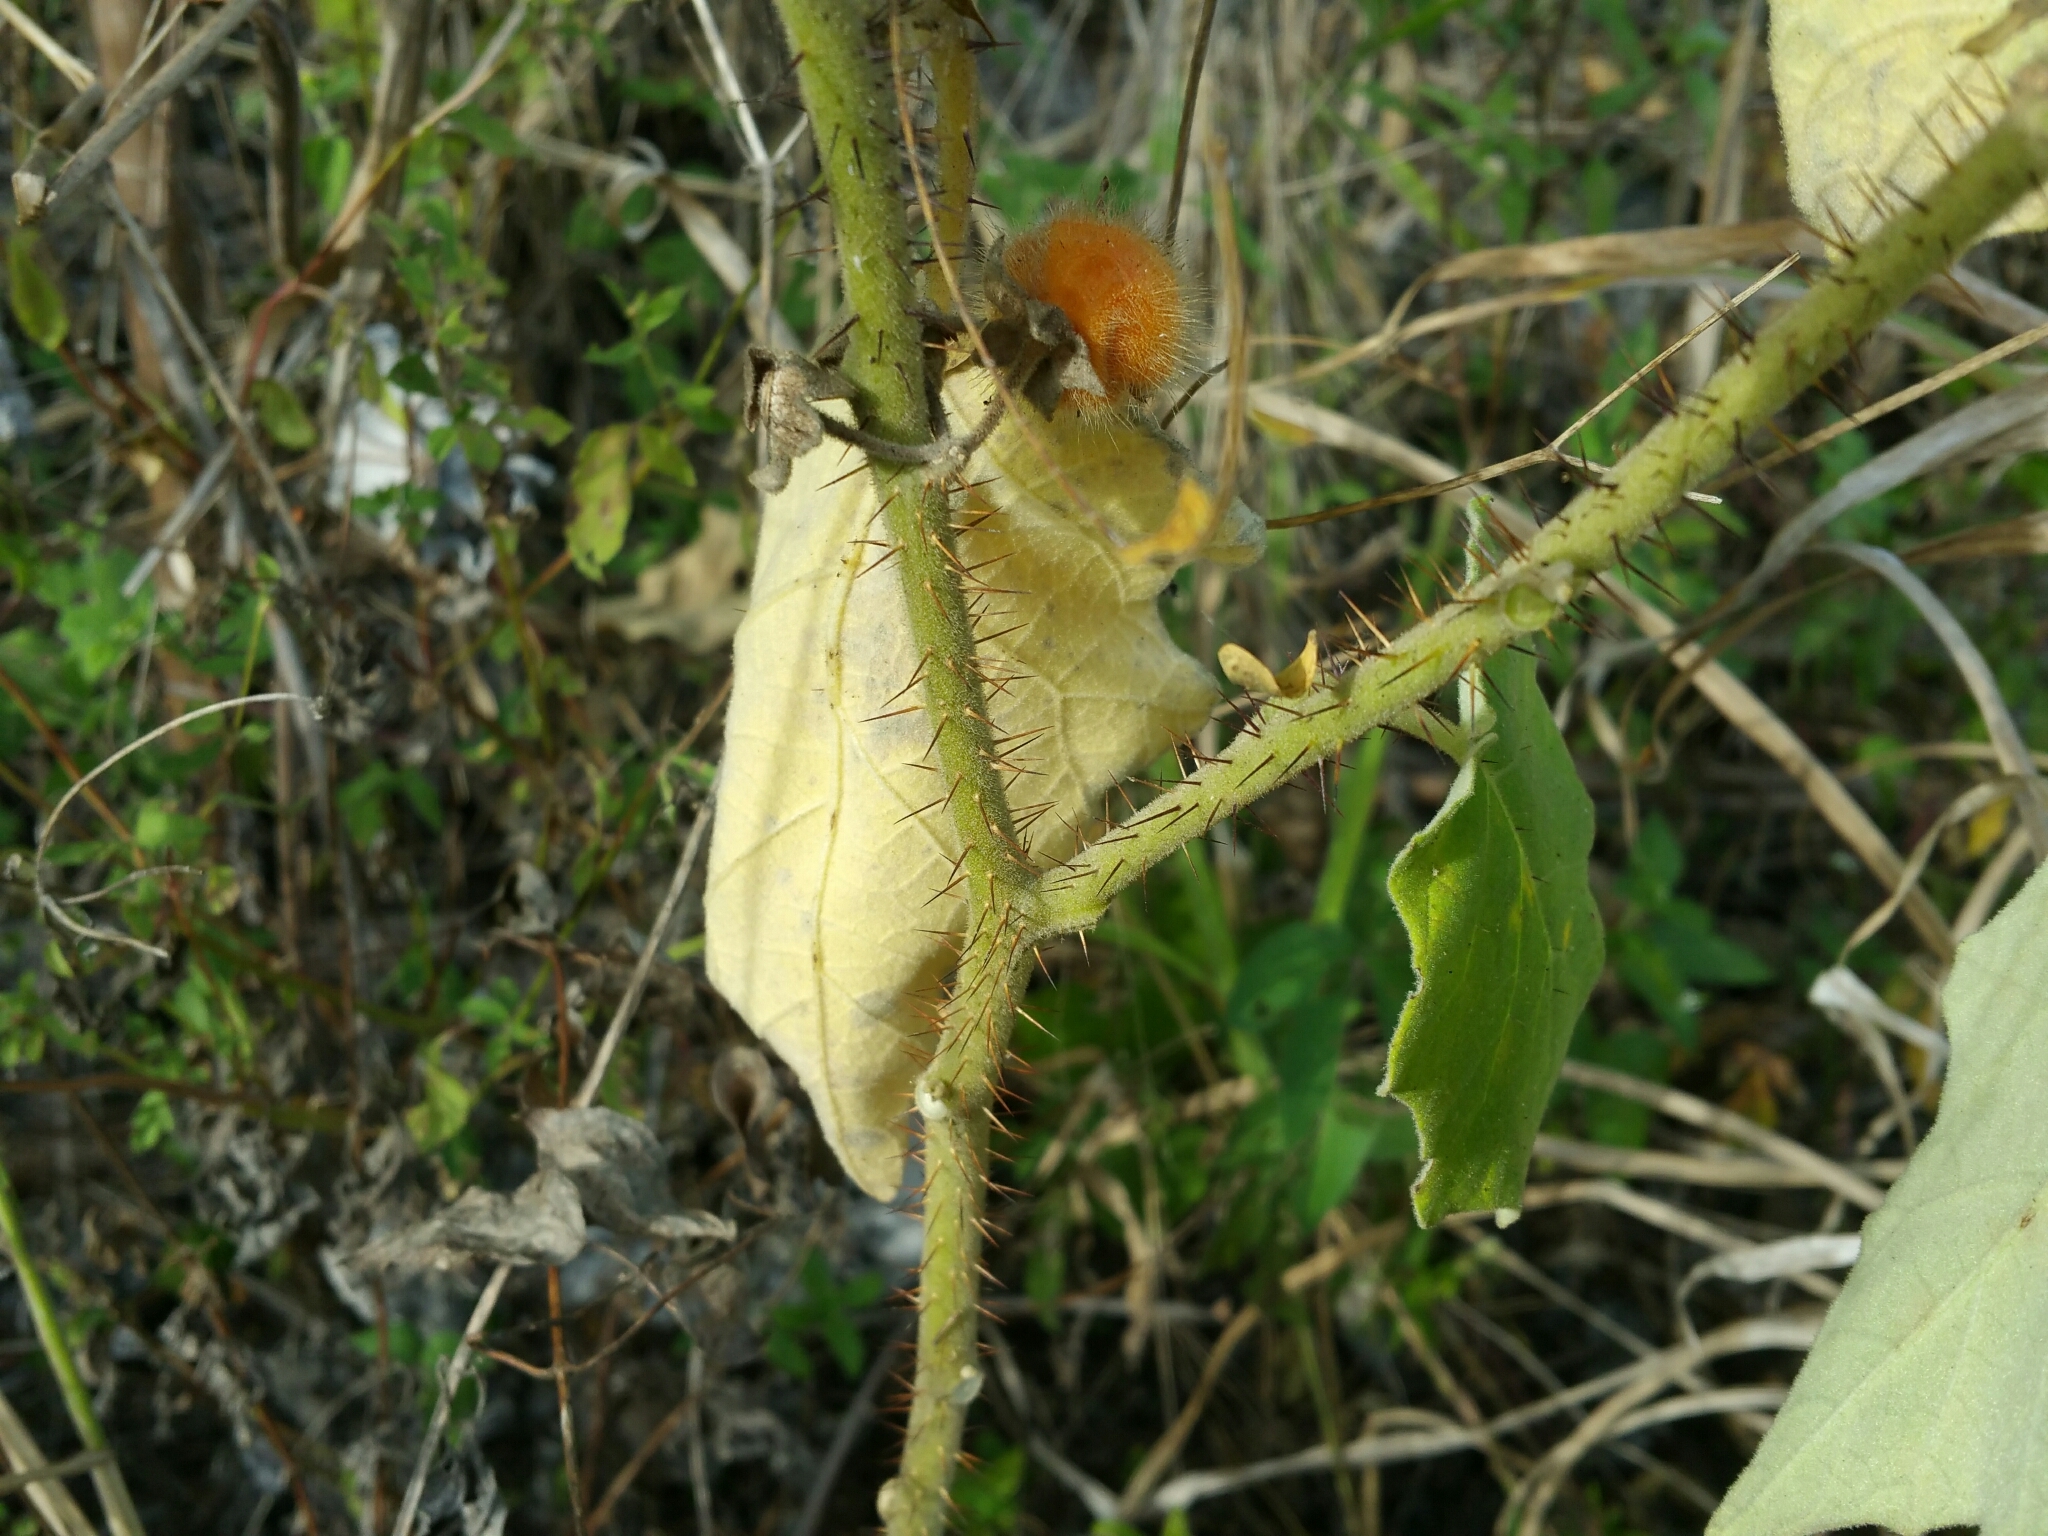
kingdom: Plantae
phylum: Tracheophyta
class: Magnoliopsida
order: Solanales
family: Solanaceae
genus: Solanum
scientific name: Solanum hirtum
